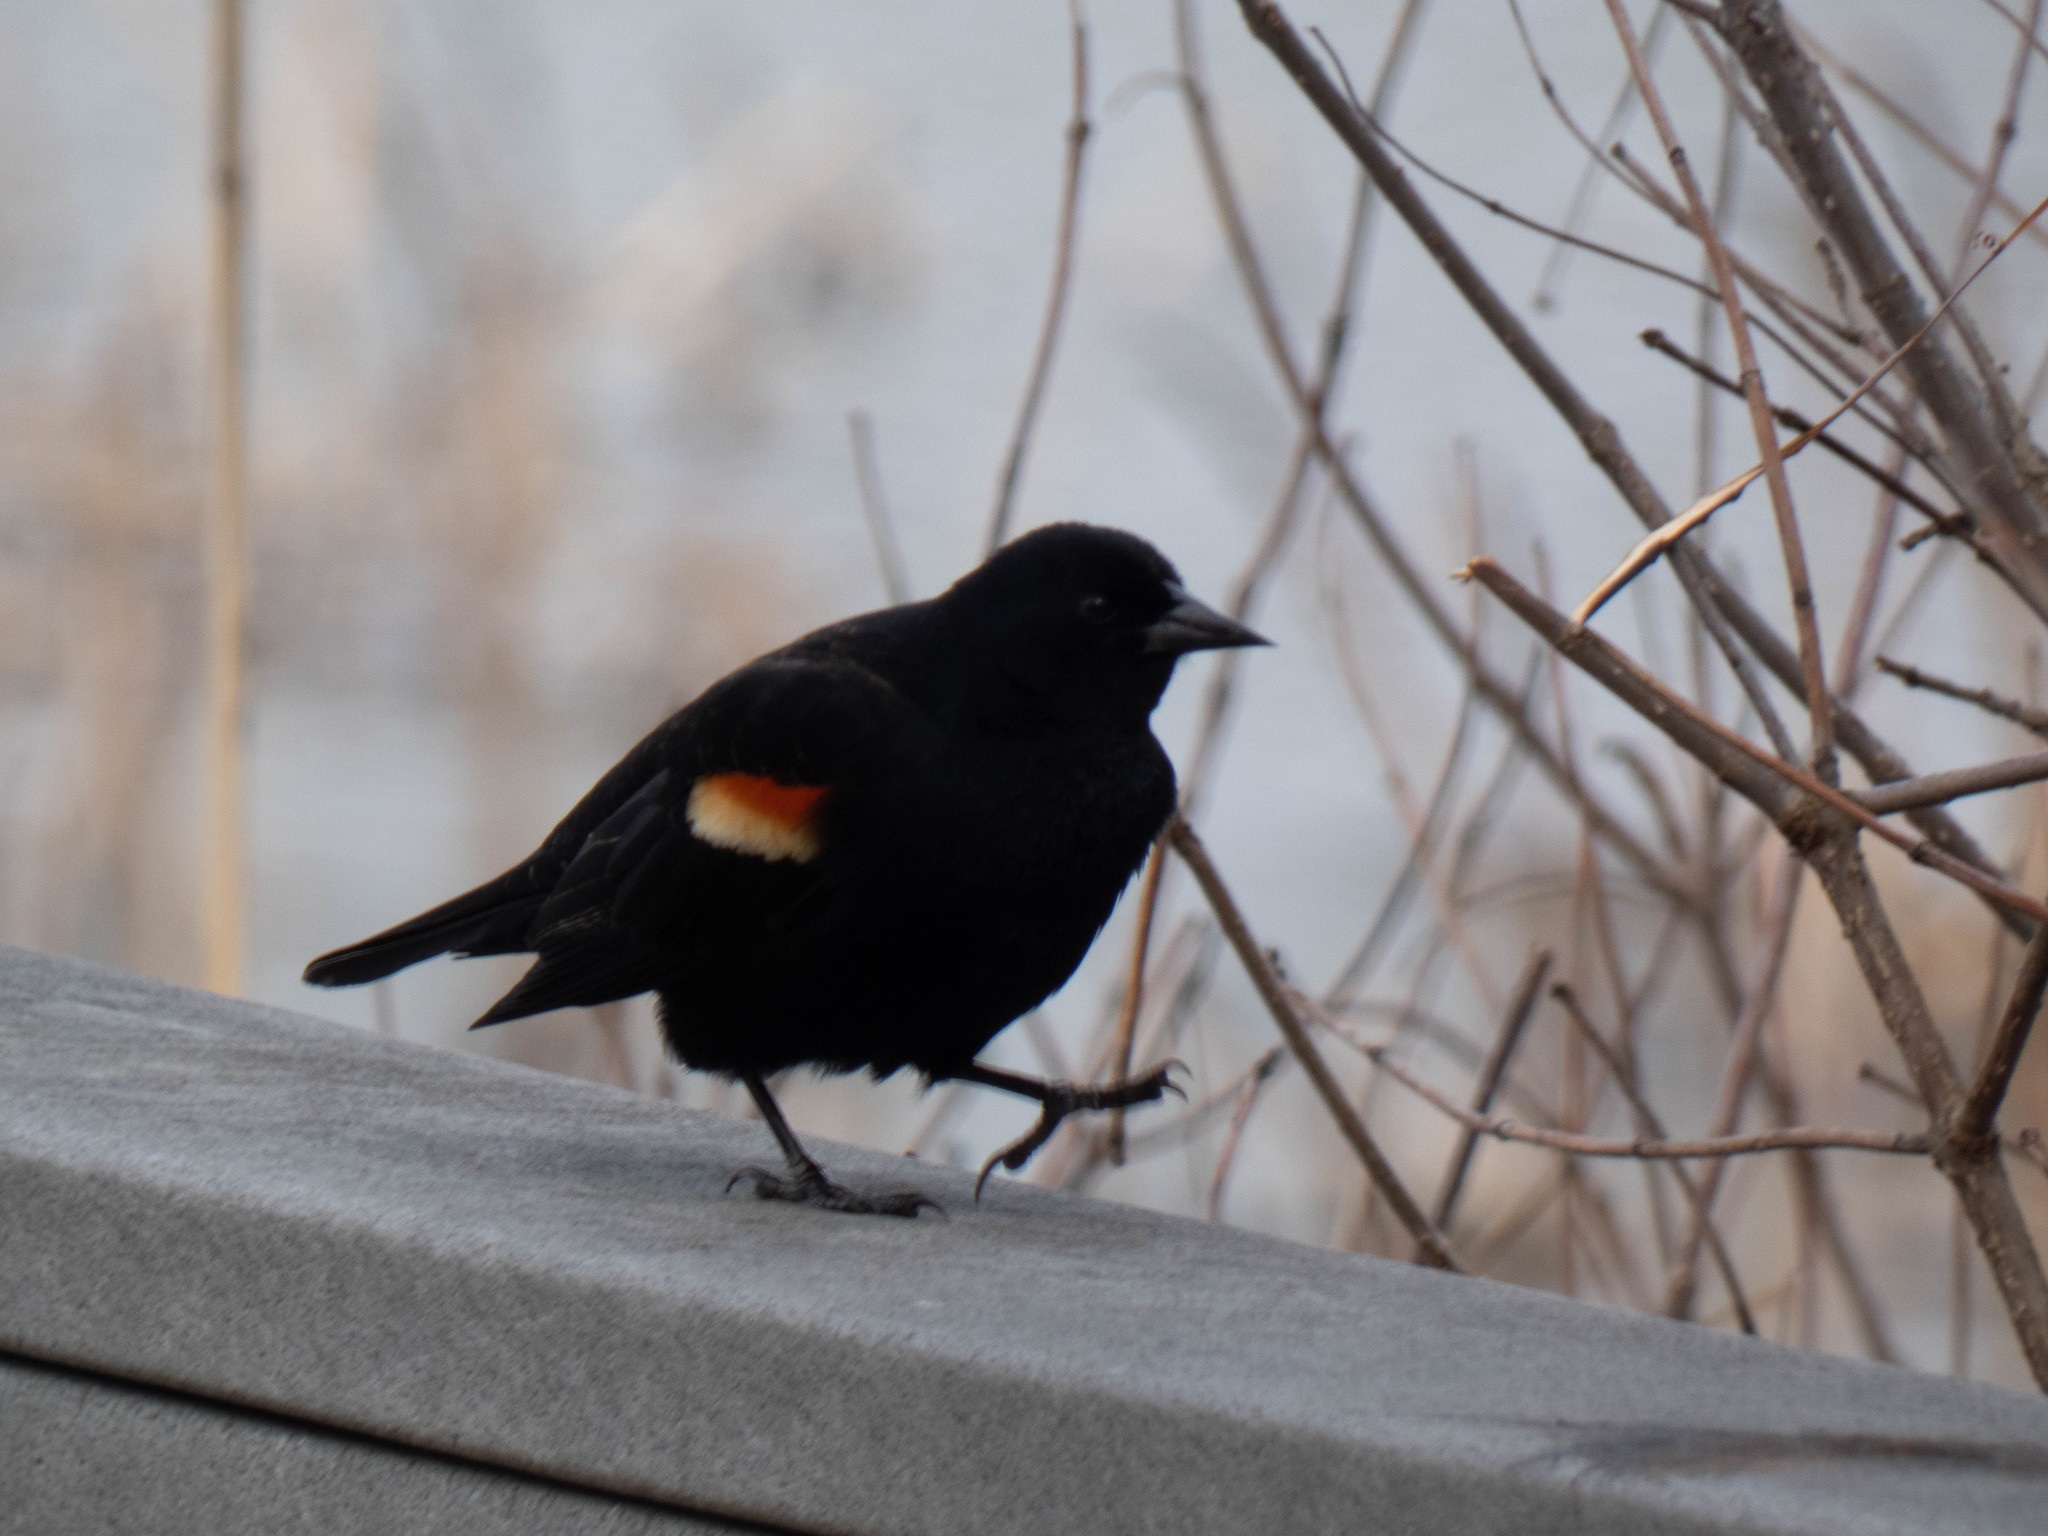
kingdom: Animalia
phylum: Chordata
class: Aves
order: Passeriformes
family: Icteridae
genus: Agelaius
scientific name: Agelaius phoeniceus
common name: Red-winged blackbird
